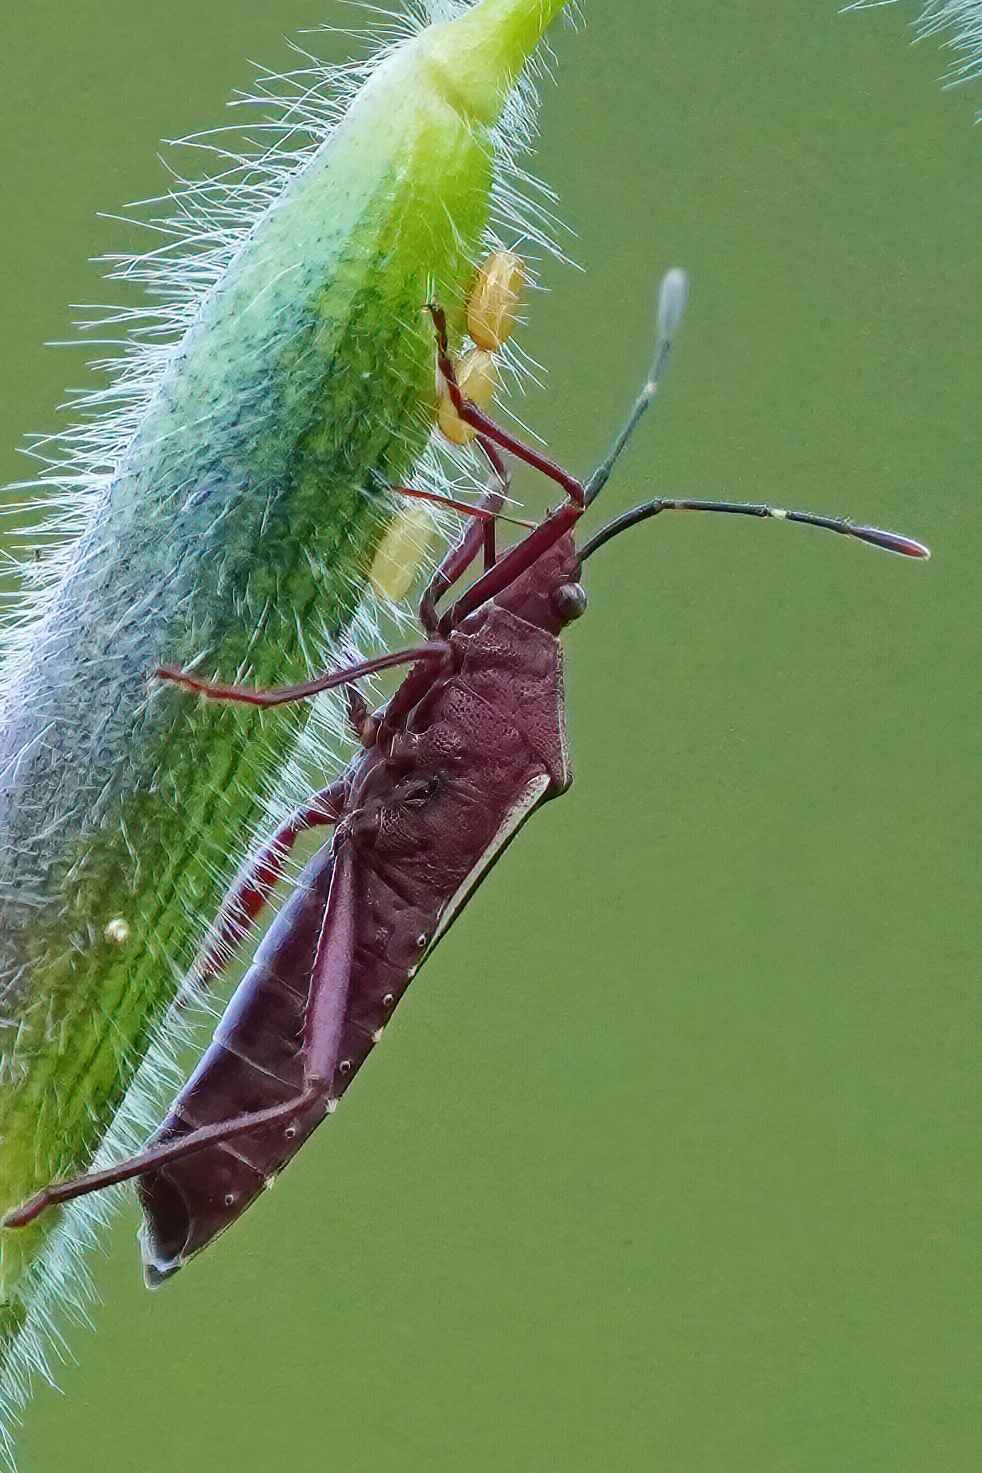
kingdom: Animalia
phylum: Arthropoda
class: Insecta
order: Hemiptera
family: Coreidae
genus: Namacus
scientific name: Namacus annulicornis
